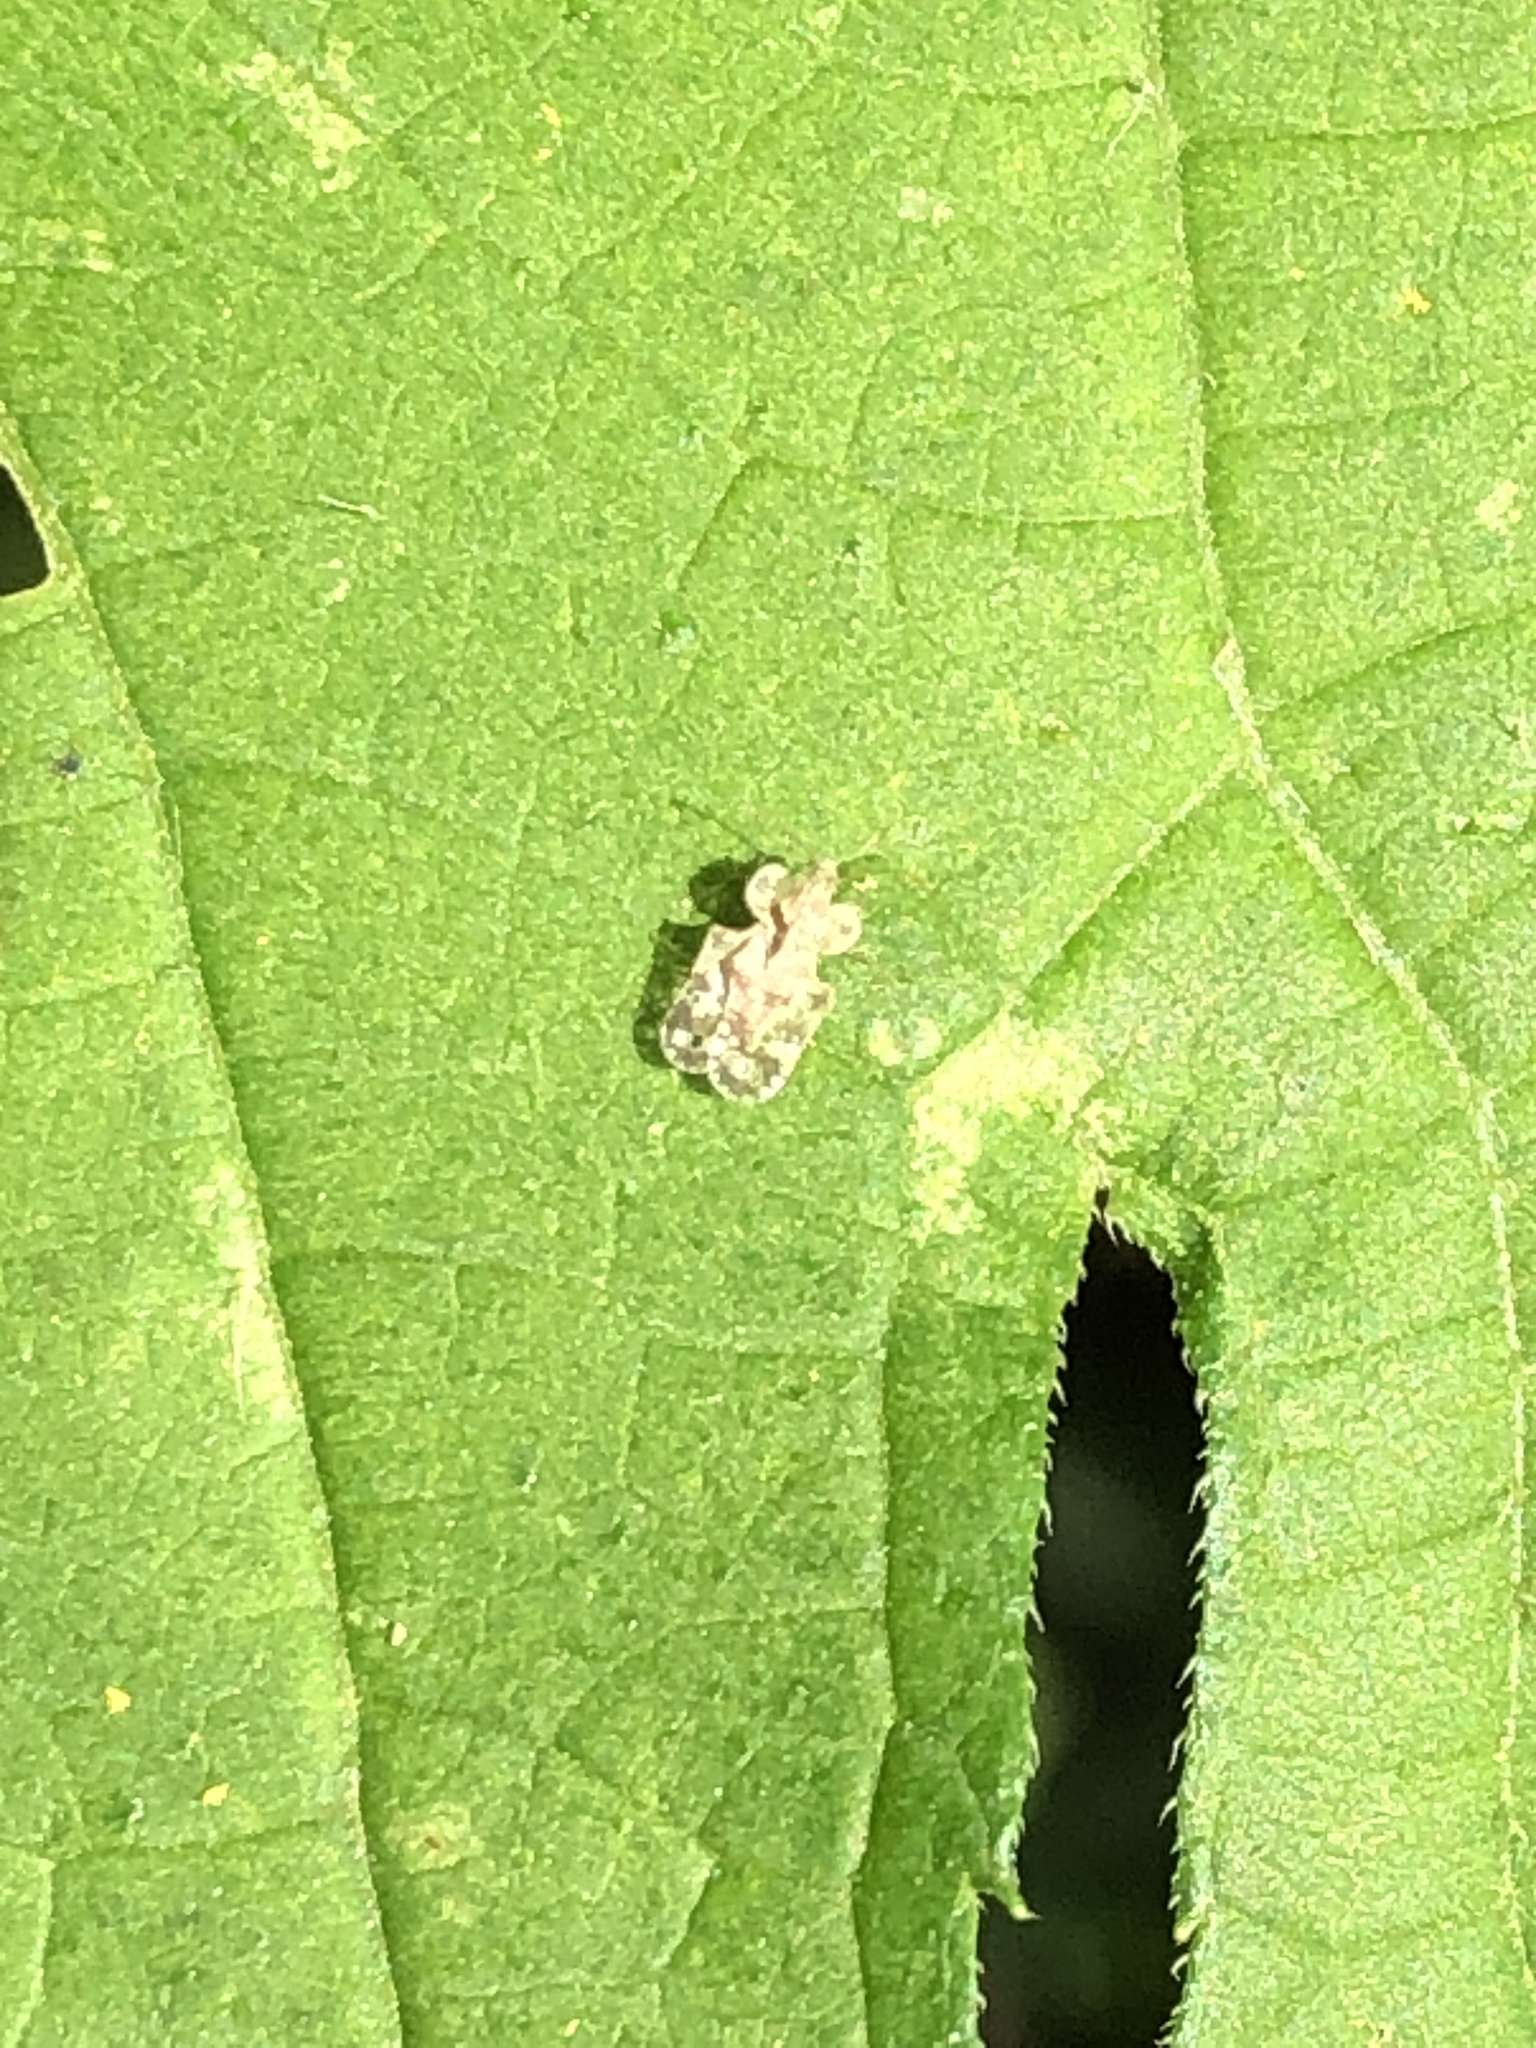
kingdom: Animalia
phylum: Arthropoda
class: Insecta
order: Hemiptera
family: Tingidae
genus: Corythucha
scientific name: Corythucha marmorata
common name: Chrysanthemum lace bug
